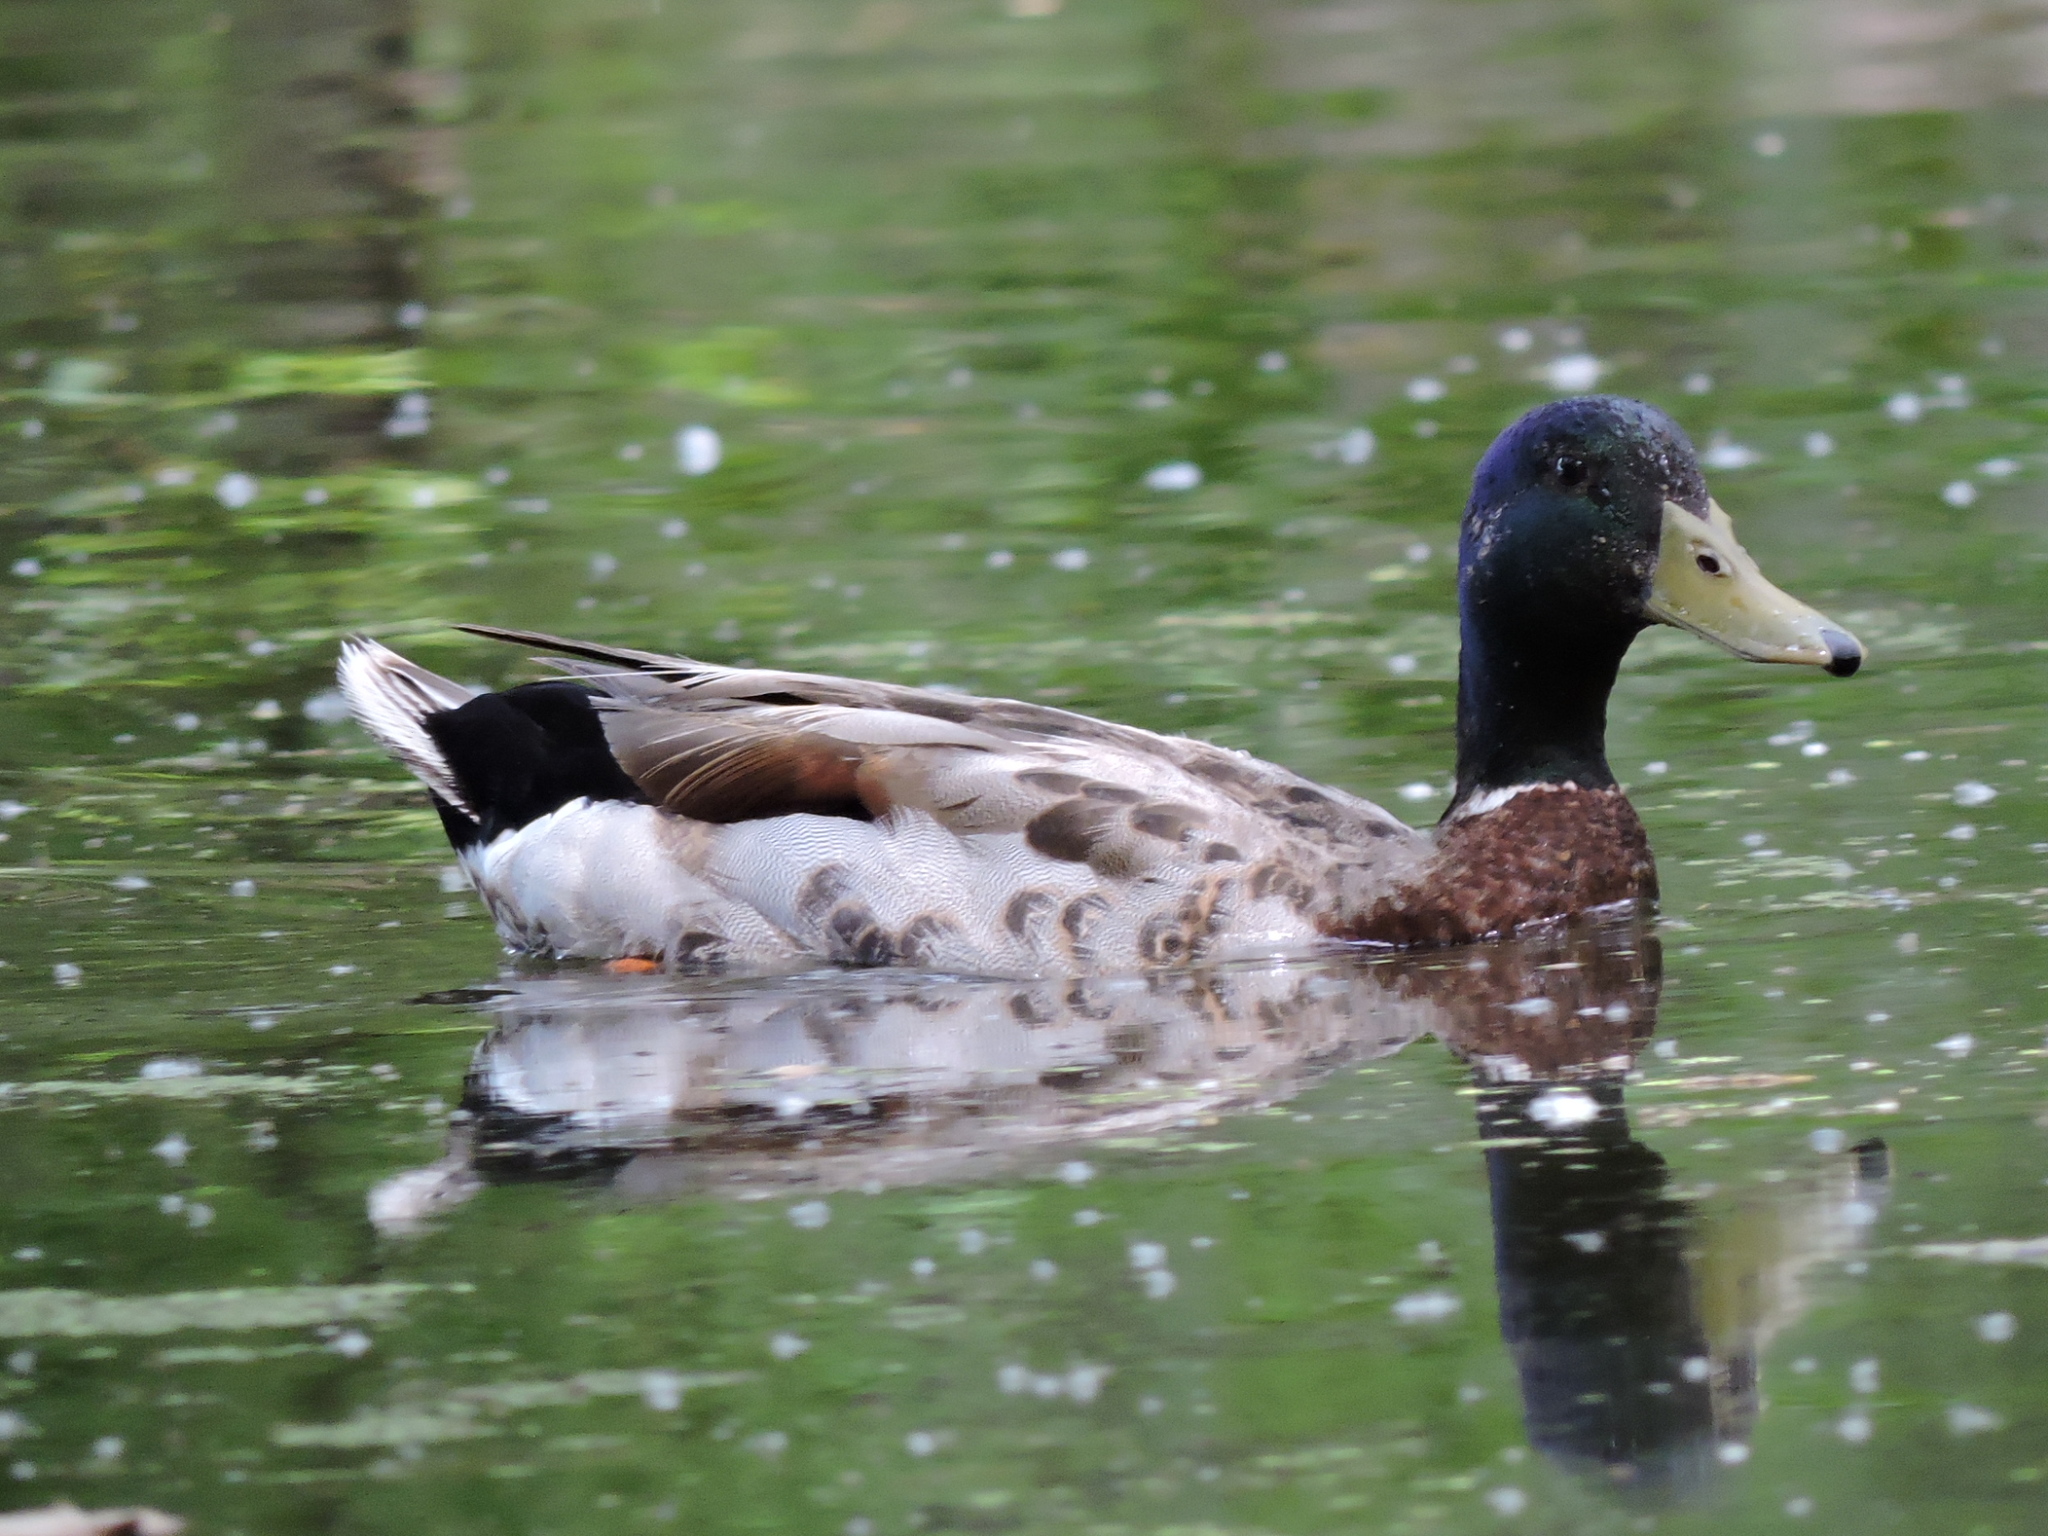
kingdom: Animalia
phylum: Chordata
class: Aves
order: Anseriformes
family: Anatidae
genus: Anas
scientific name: Anas platyrhynchos
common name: Mallard
